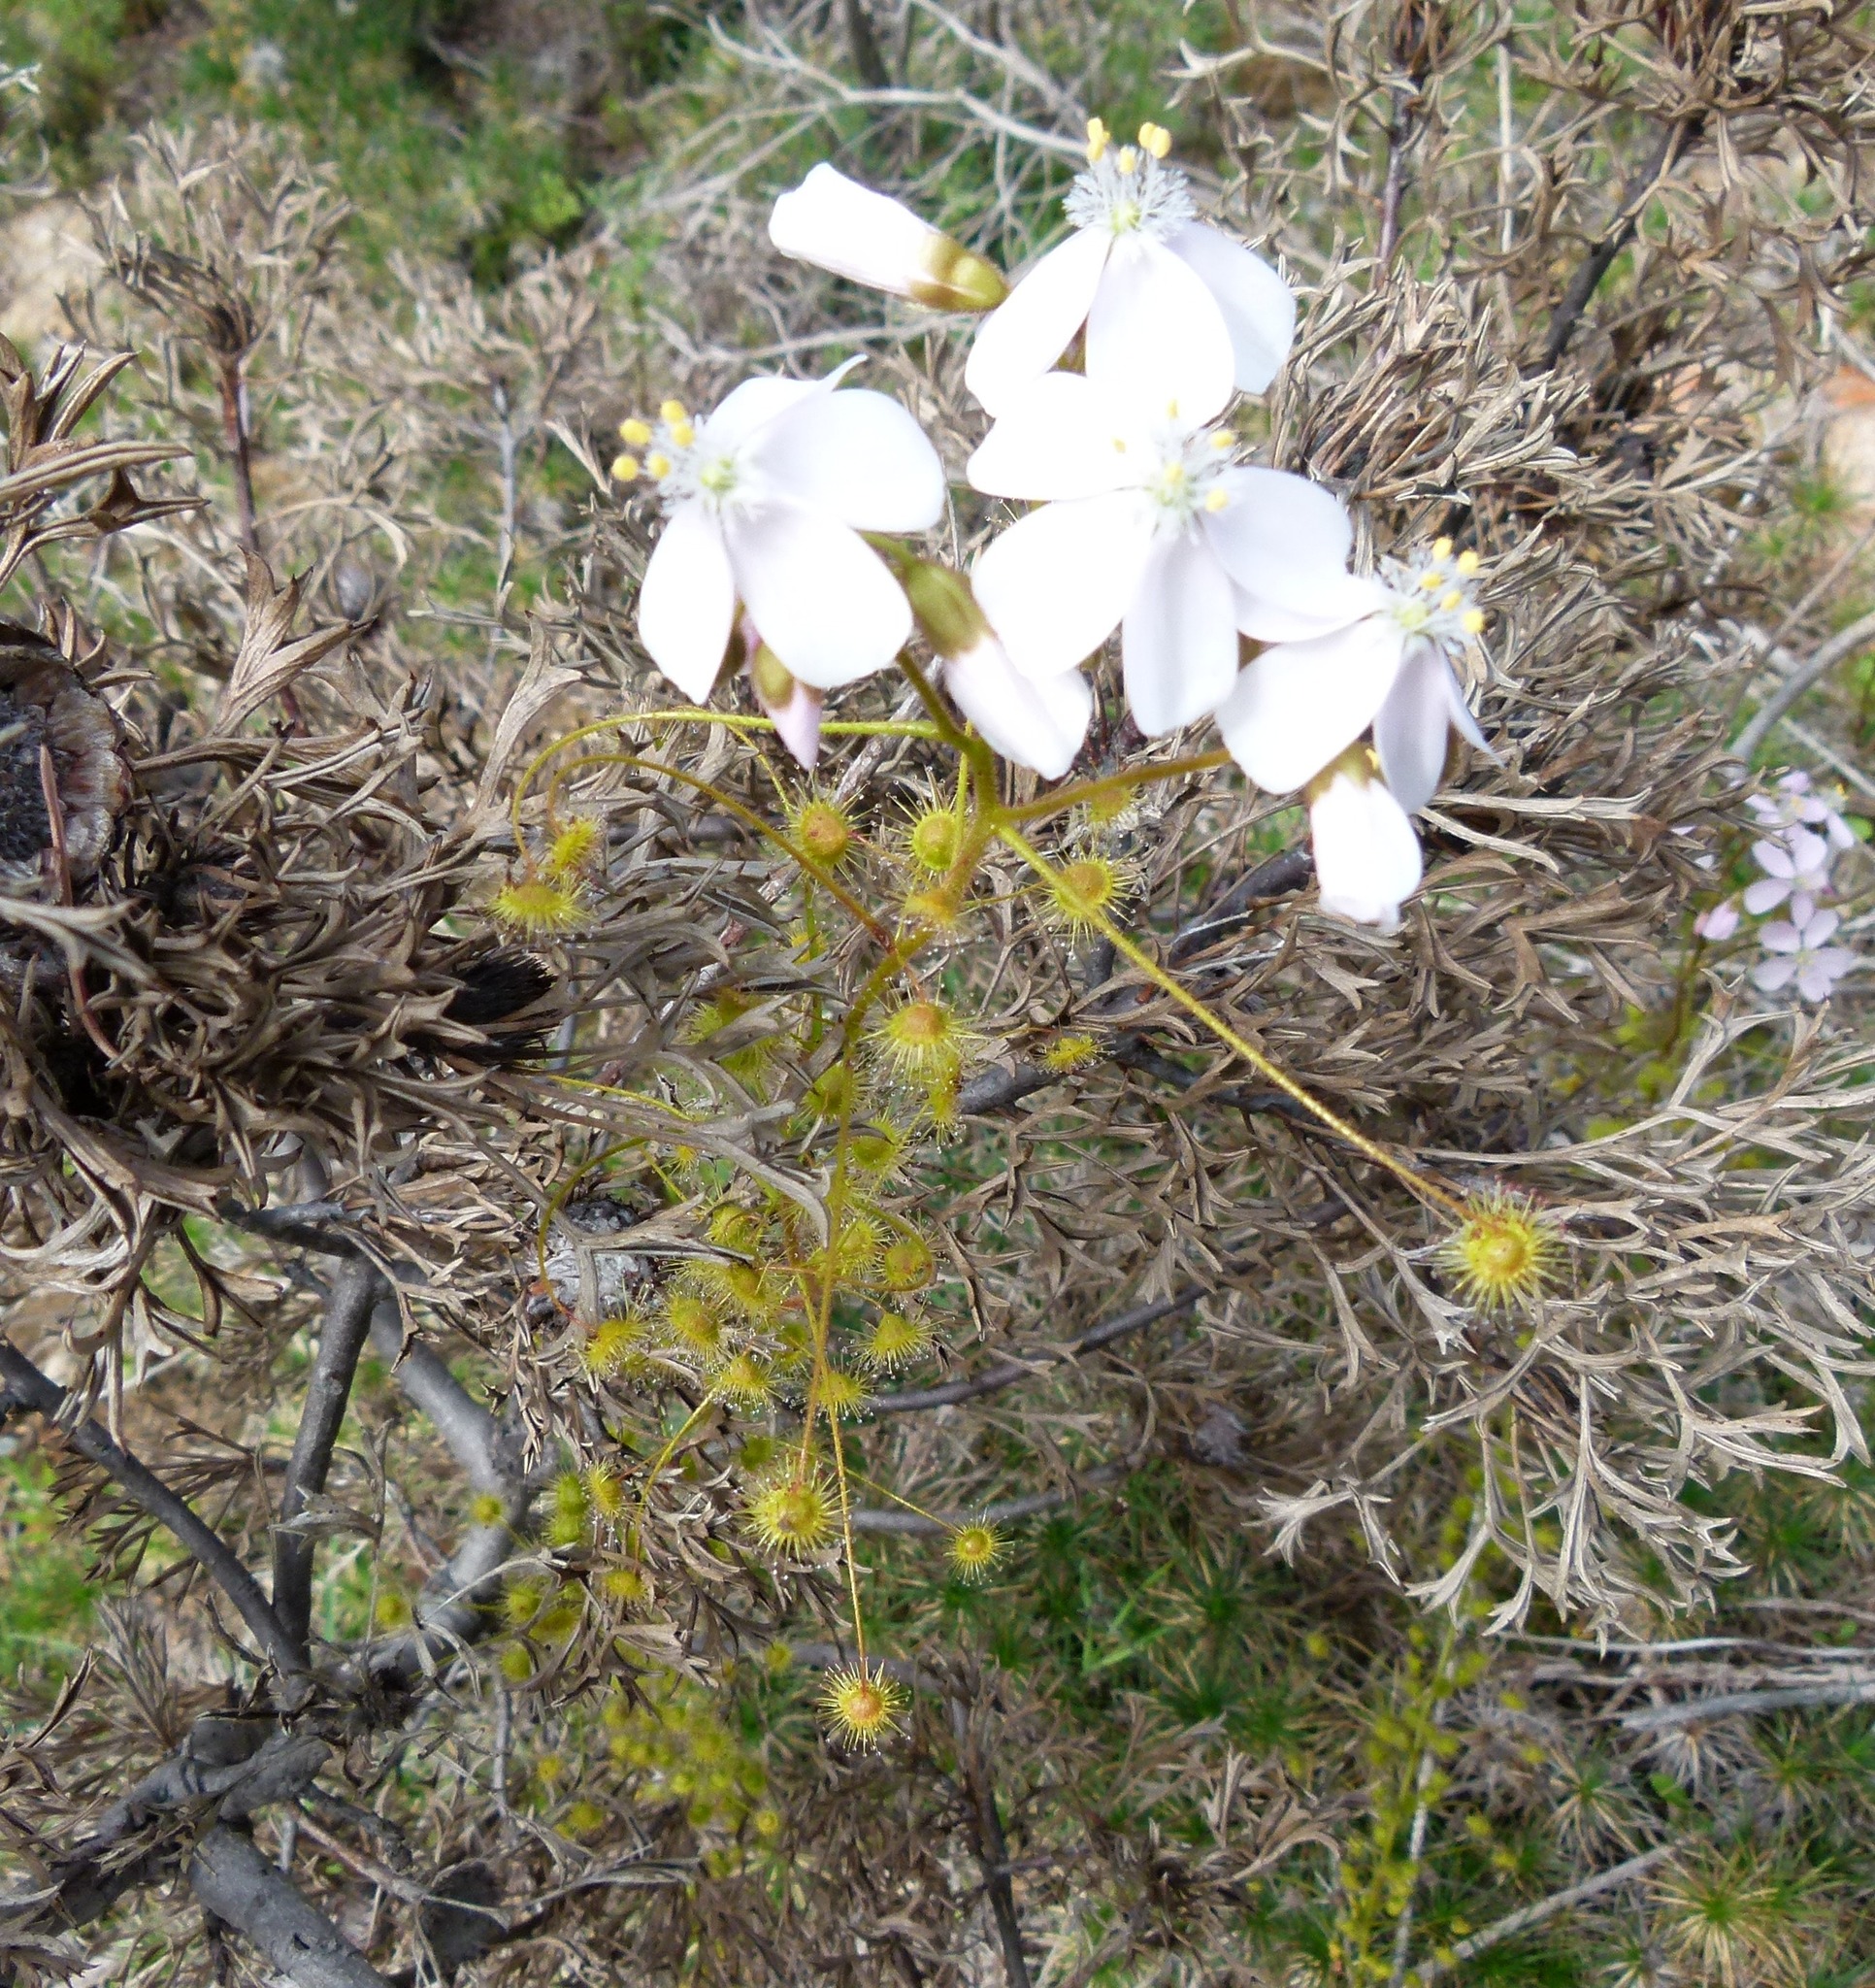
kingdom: Plantae
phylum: Tracheophyta
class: Magnoliopsida
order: Caryophyllales
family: Droseraceae
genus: Drosera
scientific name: Drosera macrantha
